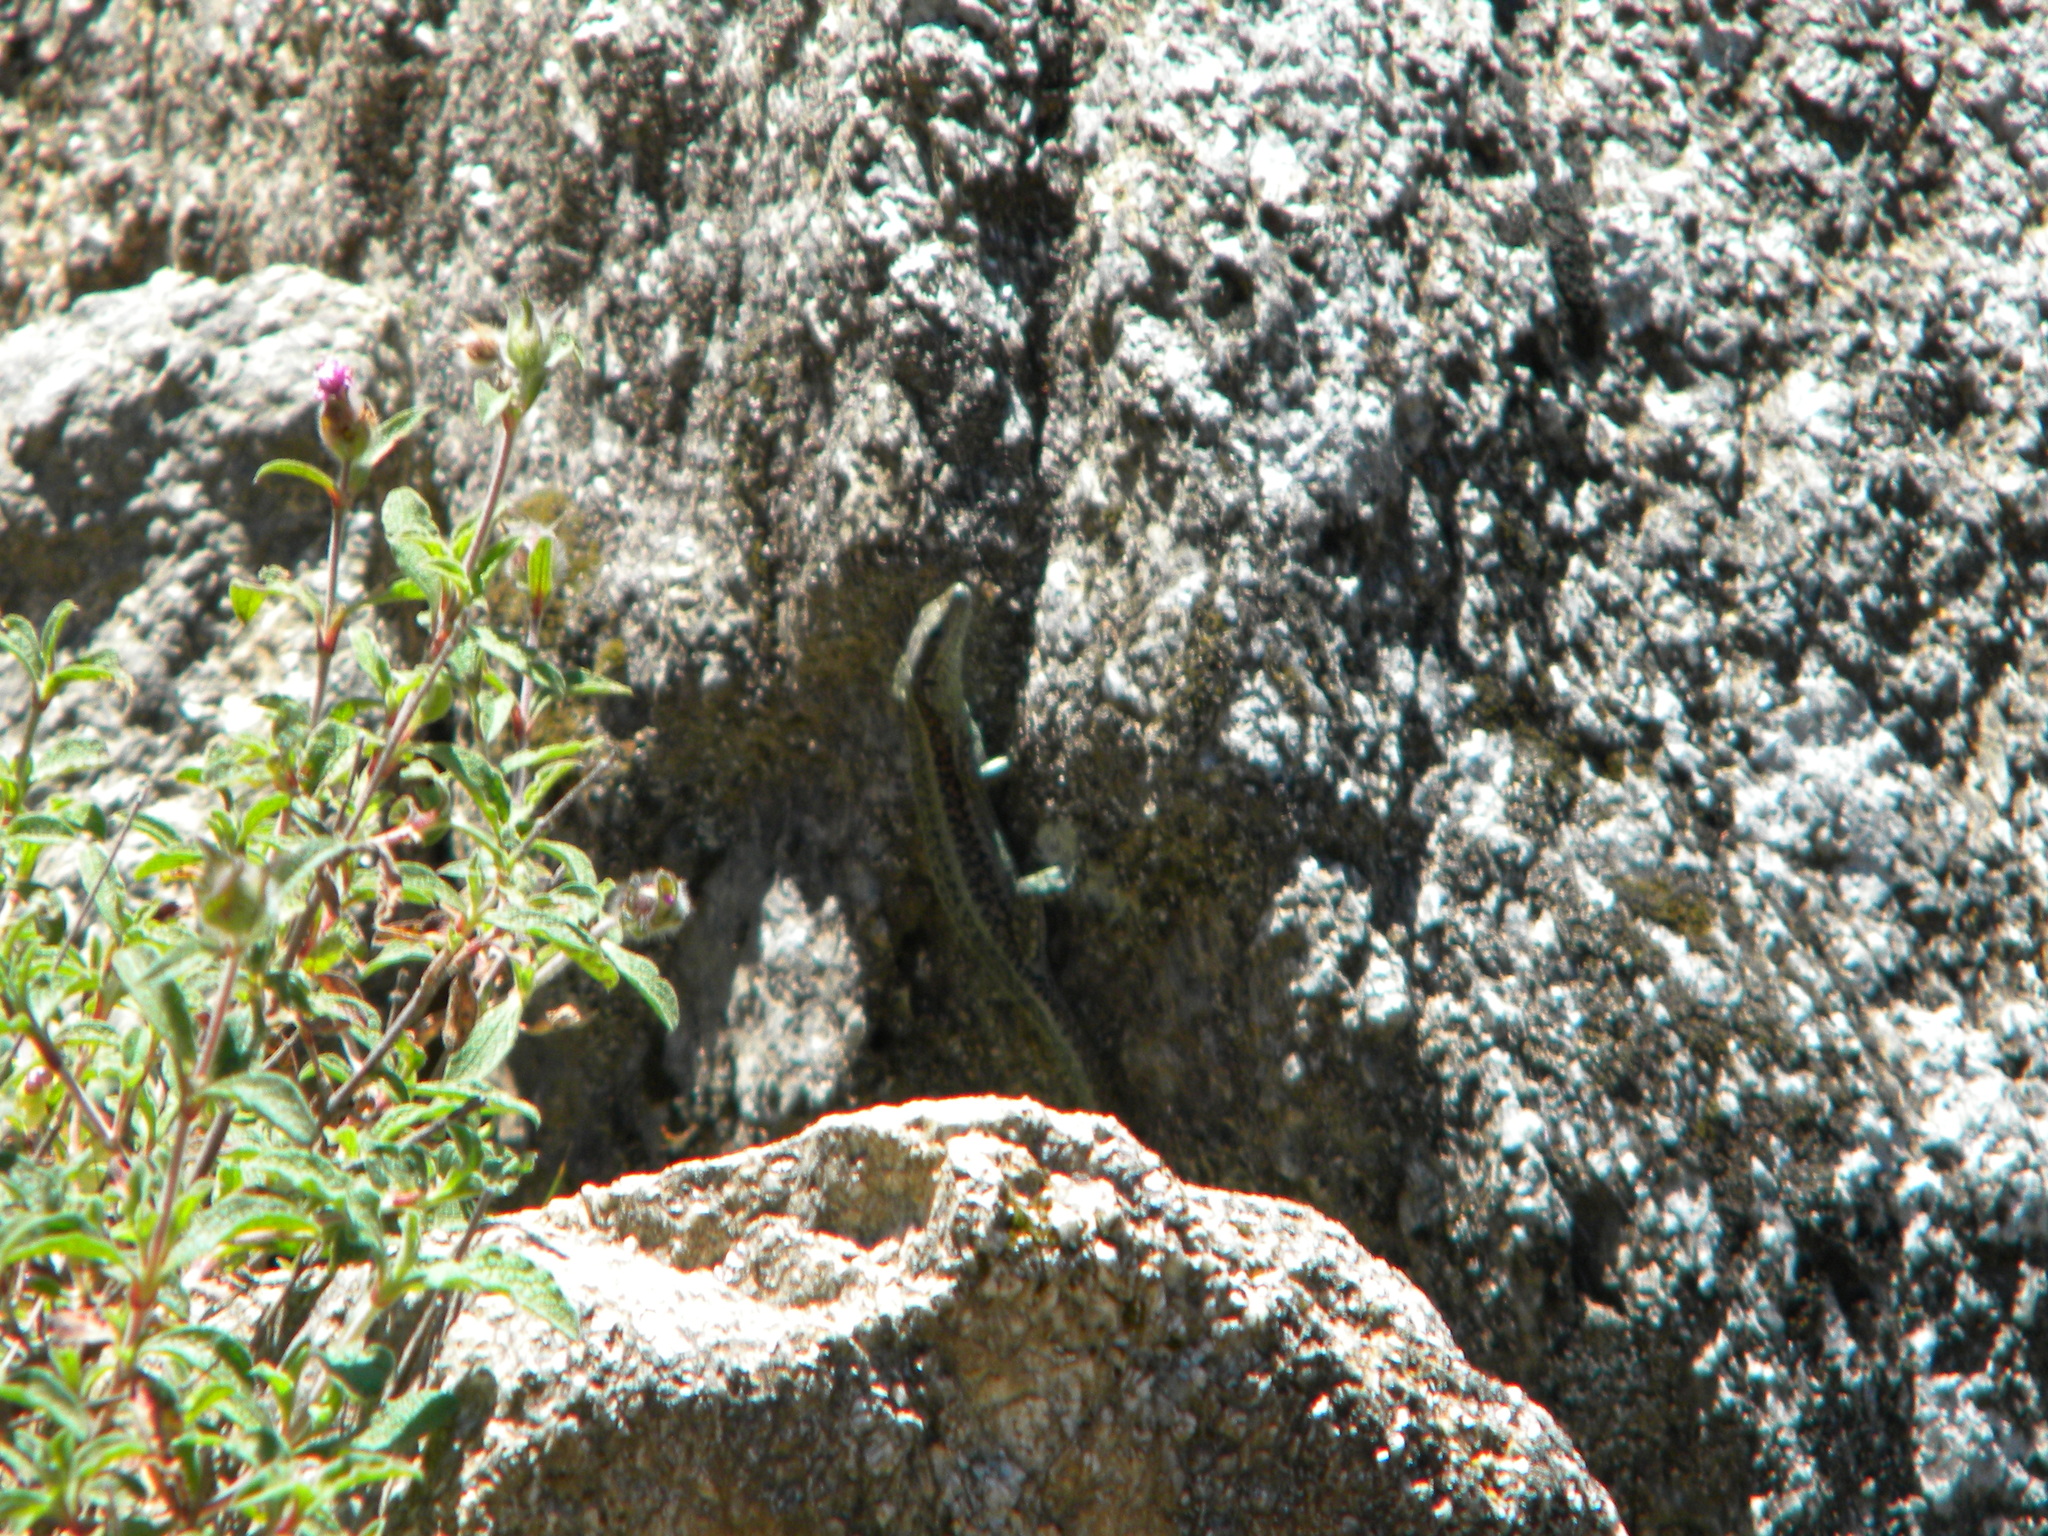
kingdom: Animalia
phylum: Chordata
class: Squamata
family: Lacertidae
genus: Anatololacerta
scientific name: Anatololacerta anatolica
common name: Anatolian rock lizard
